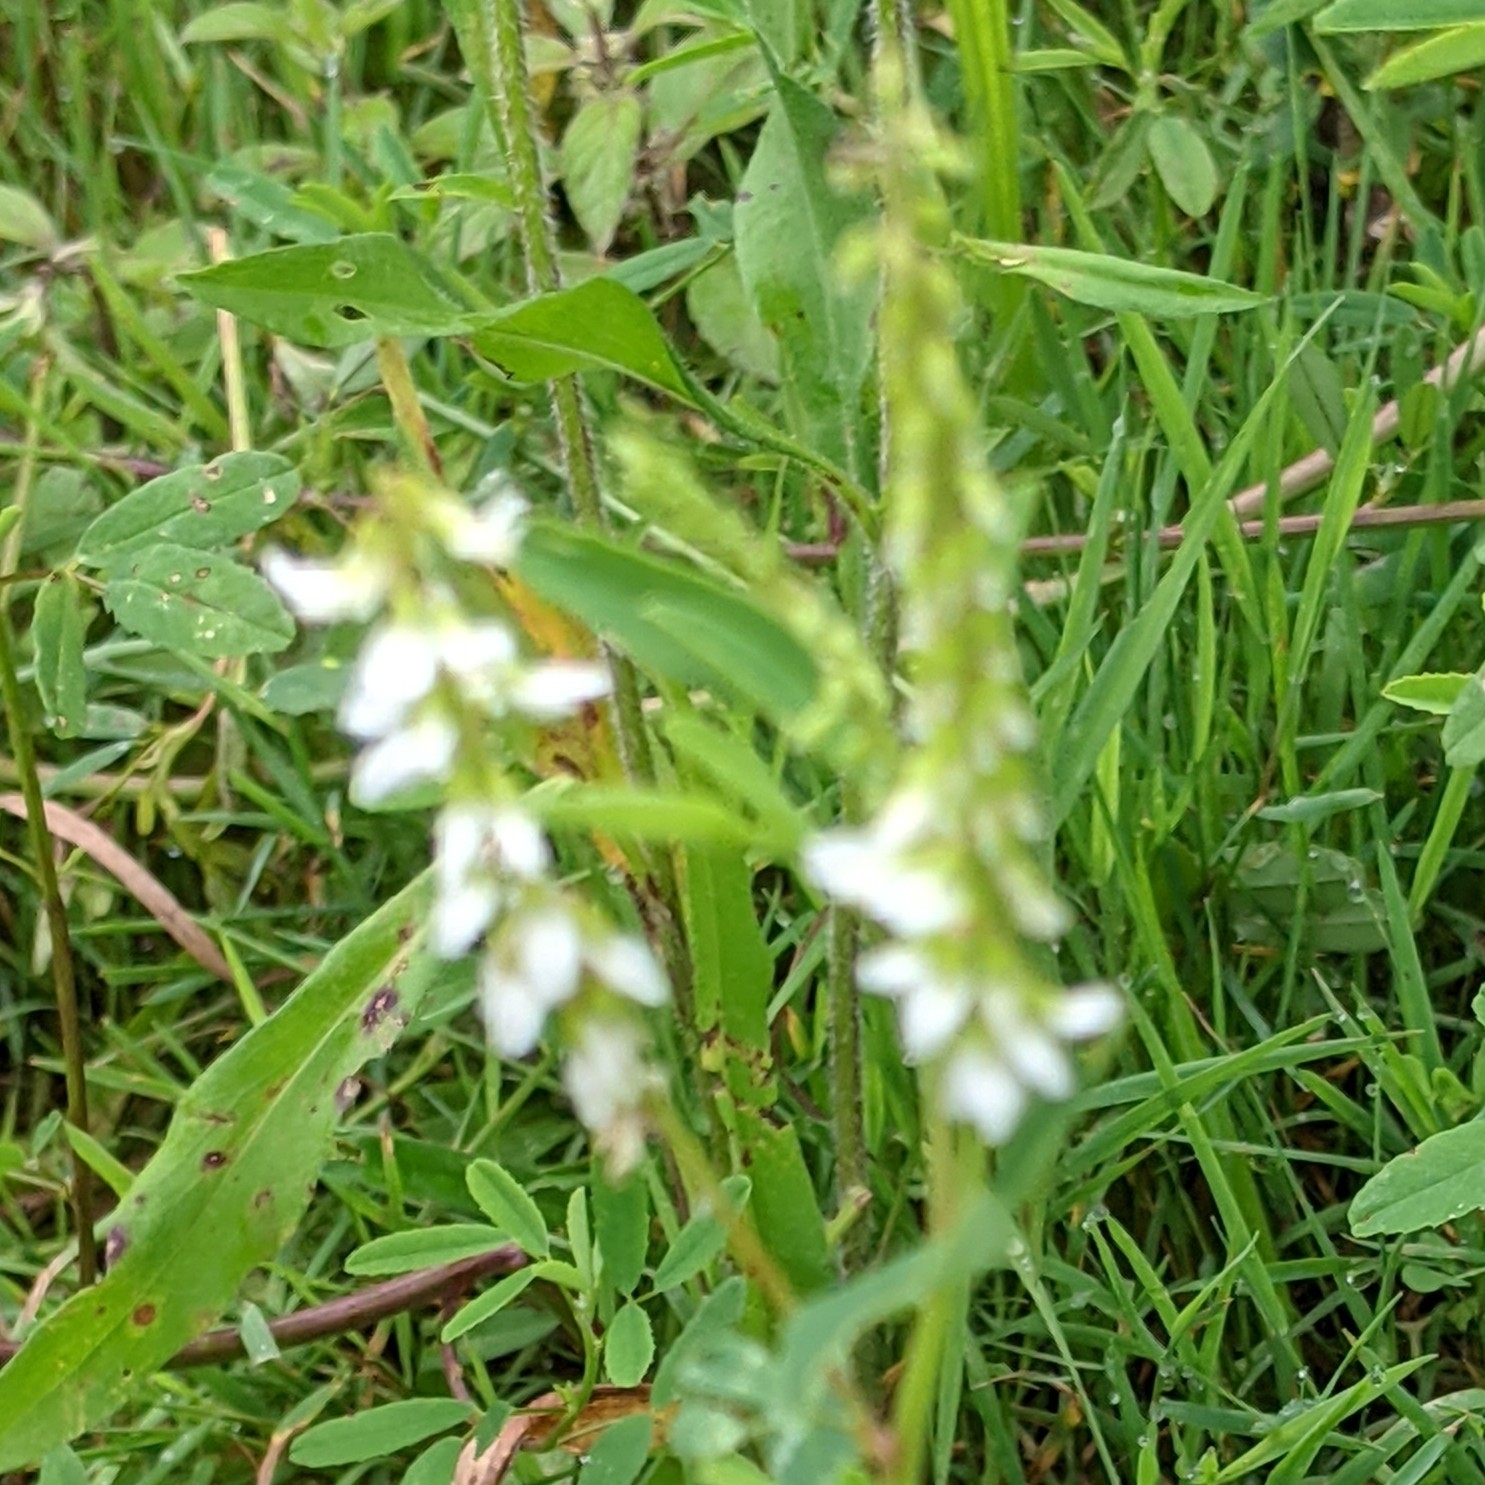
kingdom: Plantae
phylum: Tracheophyta
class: Magnoliopsida
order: Fabales
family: Fabaceae
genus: Melilotus
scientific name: Melilotus albus
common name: White melilot
